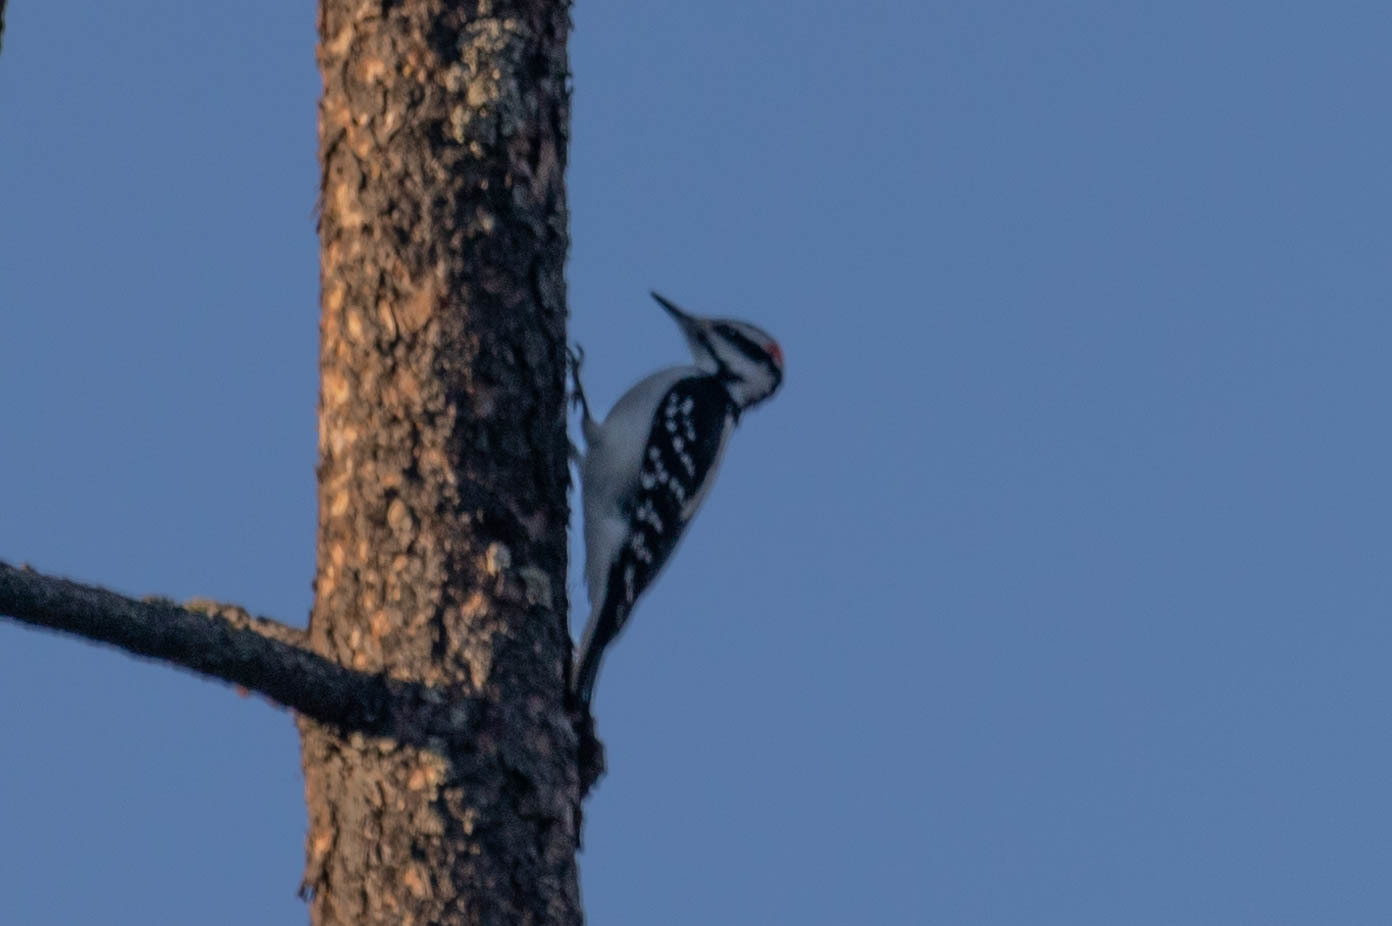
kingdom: Animalia
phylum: Chordata
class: Aves
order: Piciformes
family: Picidae
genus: Leuconotopicus
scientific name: Leuconotopicus villosus
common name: Hairy woodpecker
